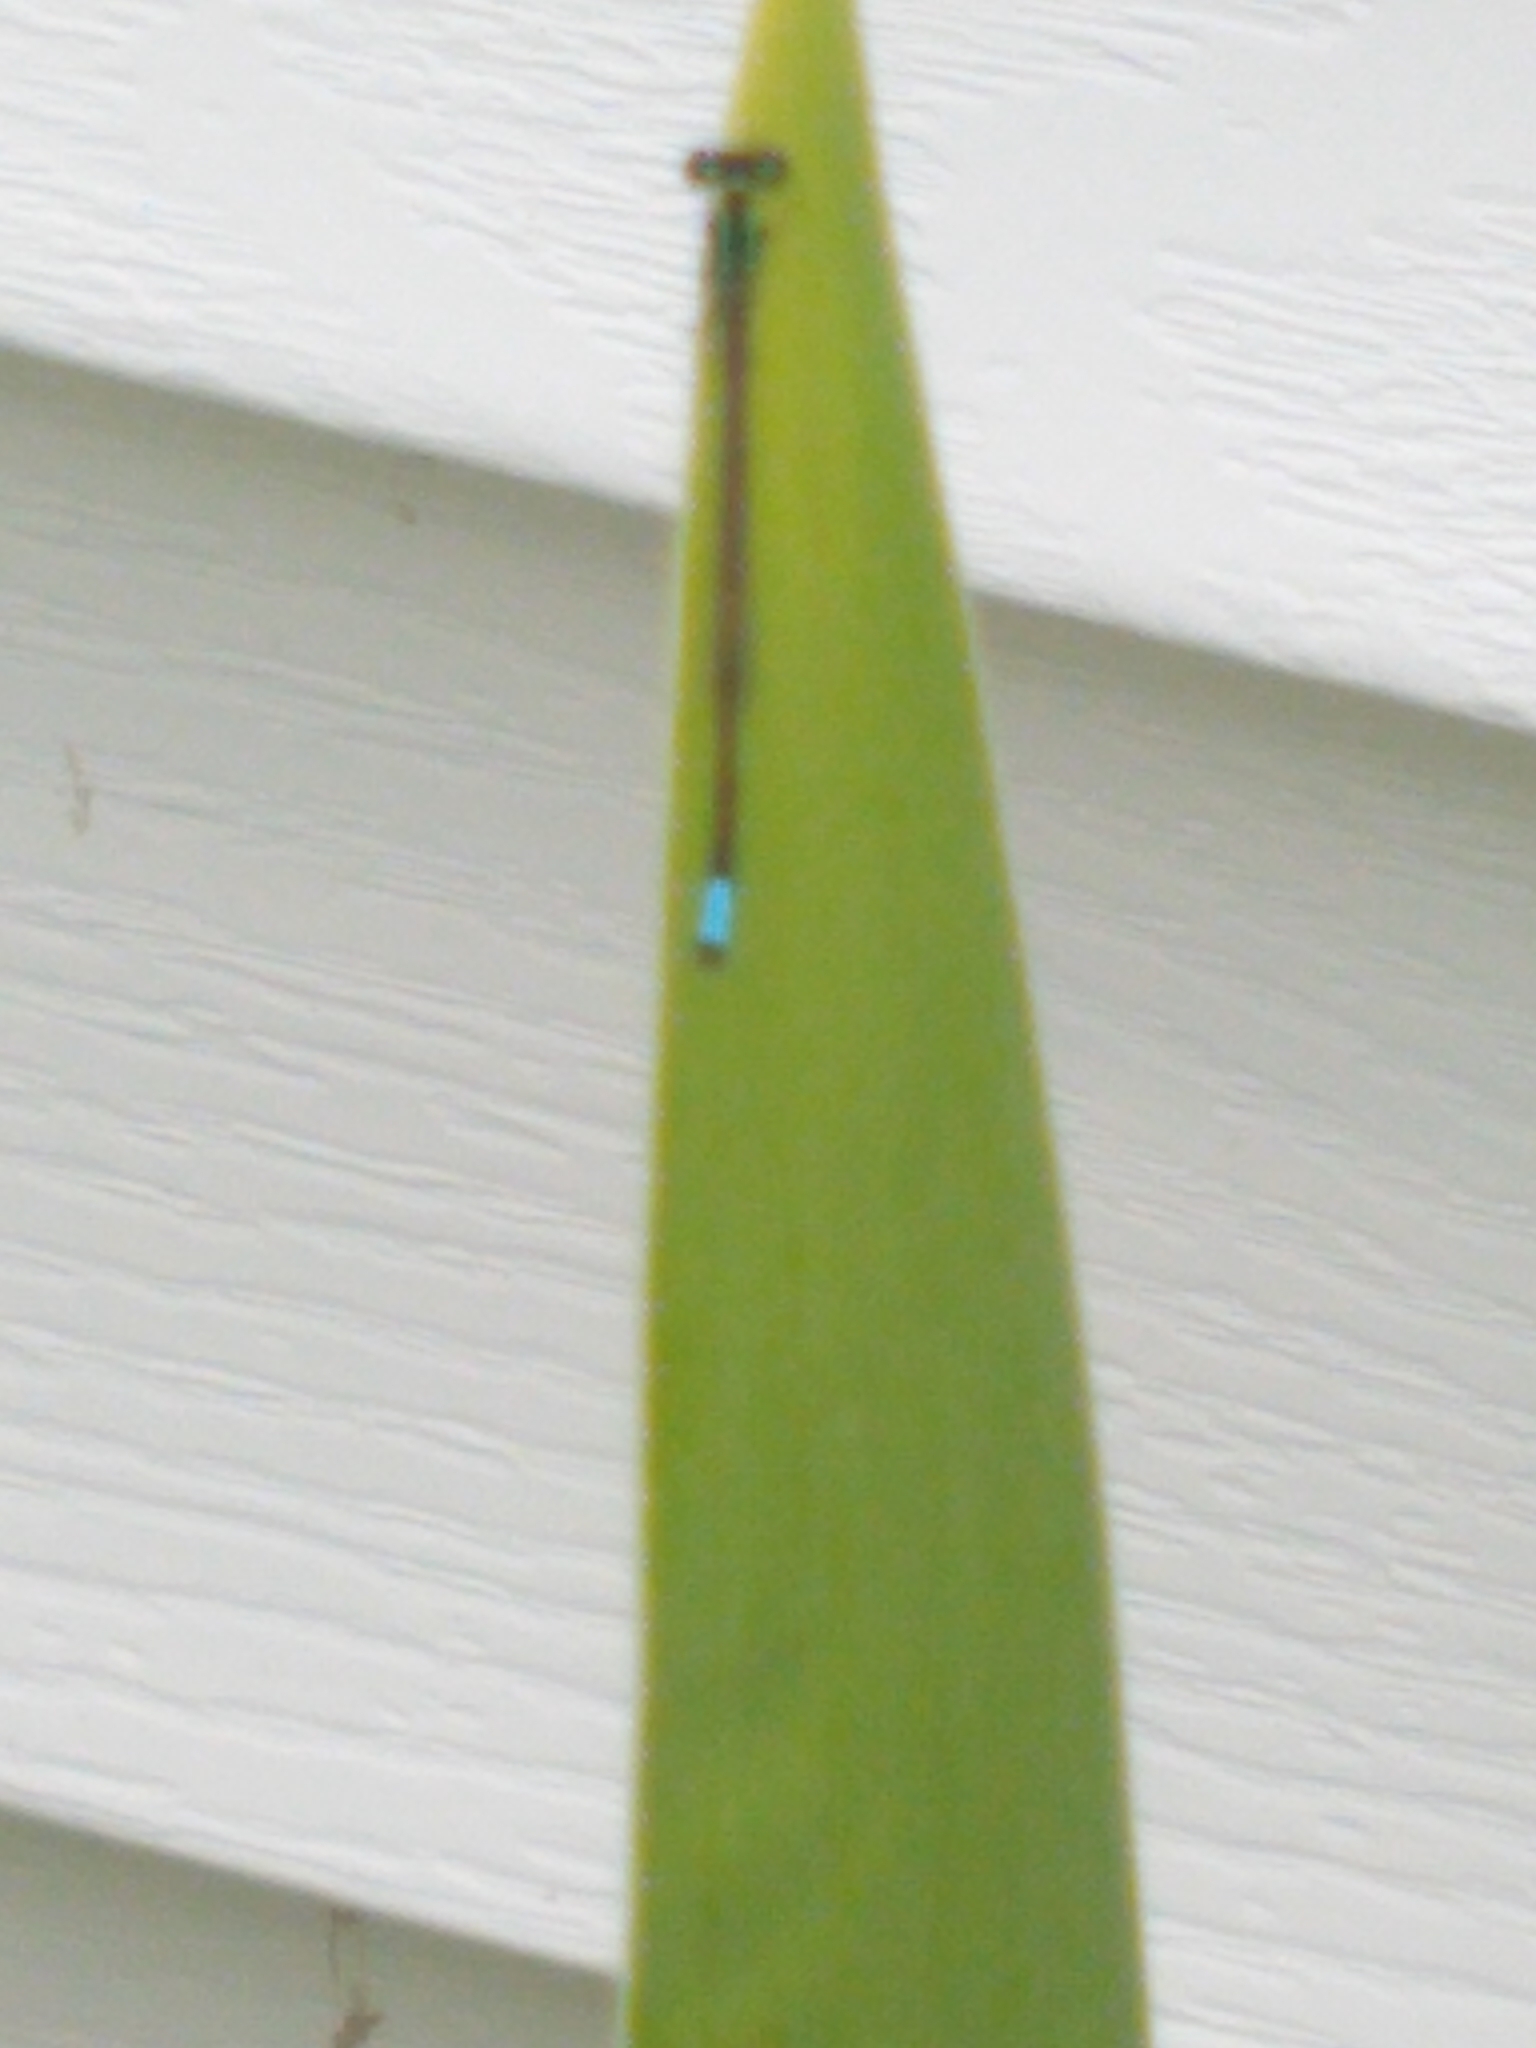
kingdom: Animalia
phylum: Arthropoda
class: Insecta
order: Odonata
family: Coenagrionidae
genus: Ischnura
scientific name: Ischnura verticalis
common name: Eastern forktail
